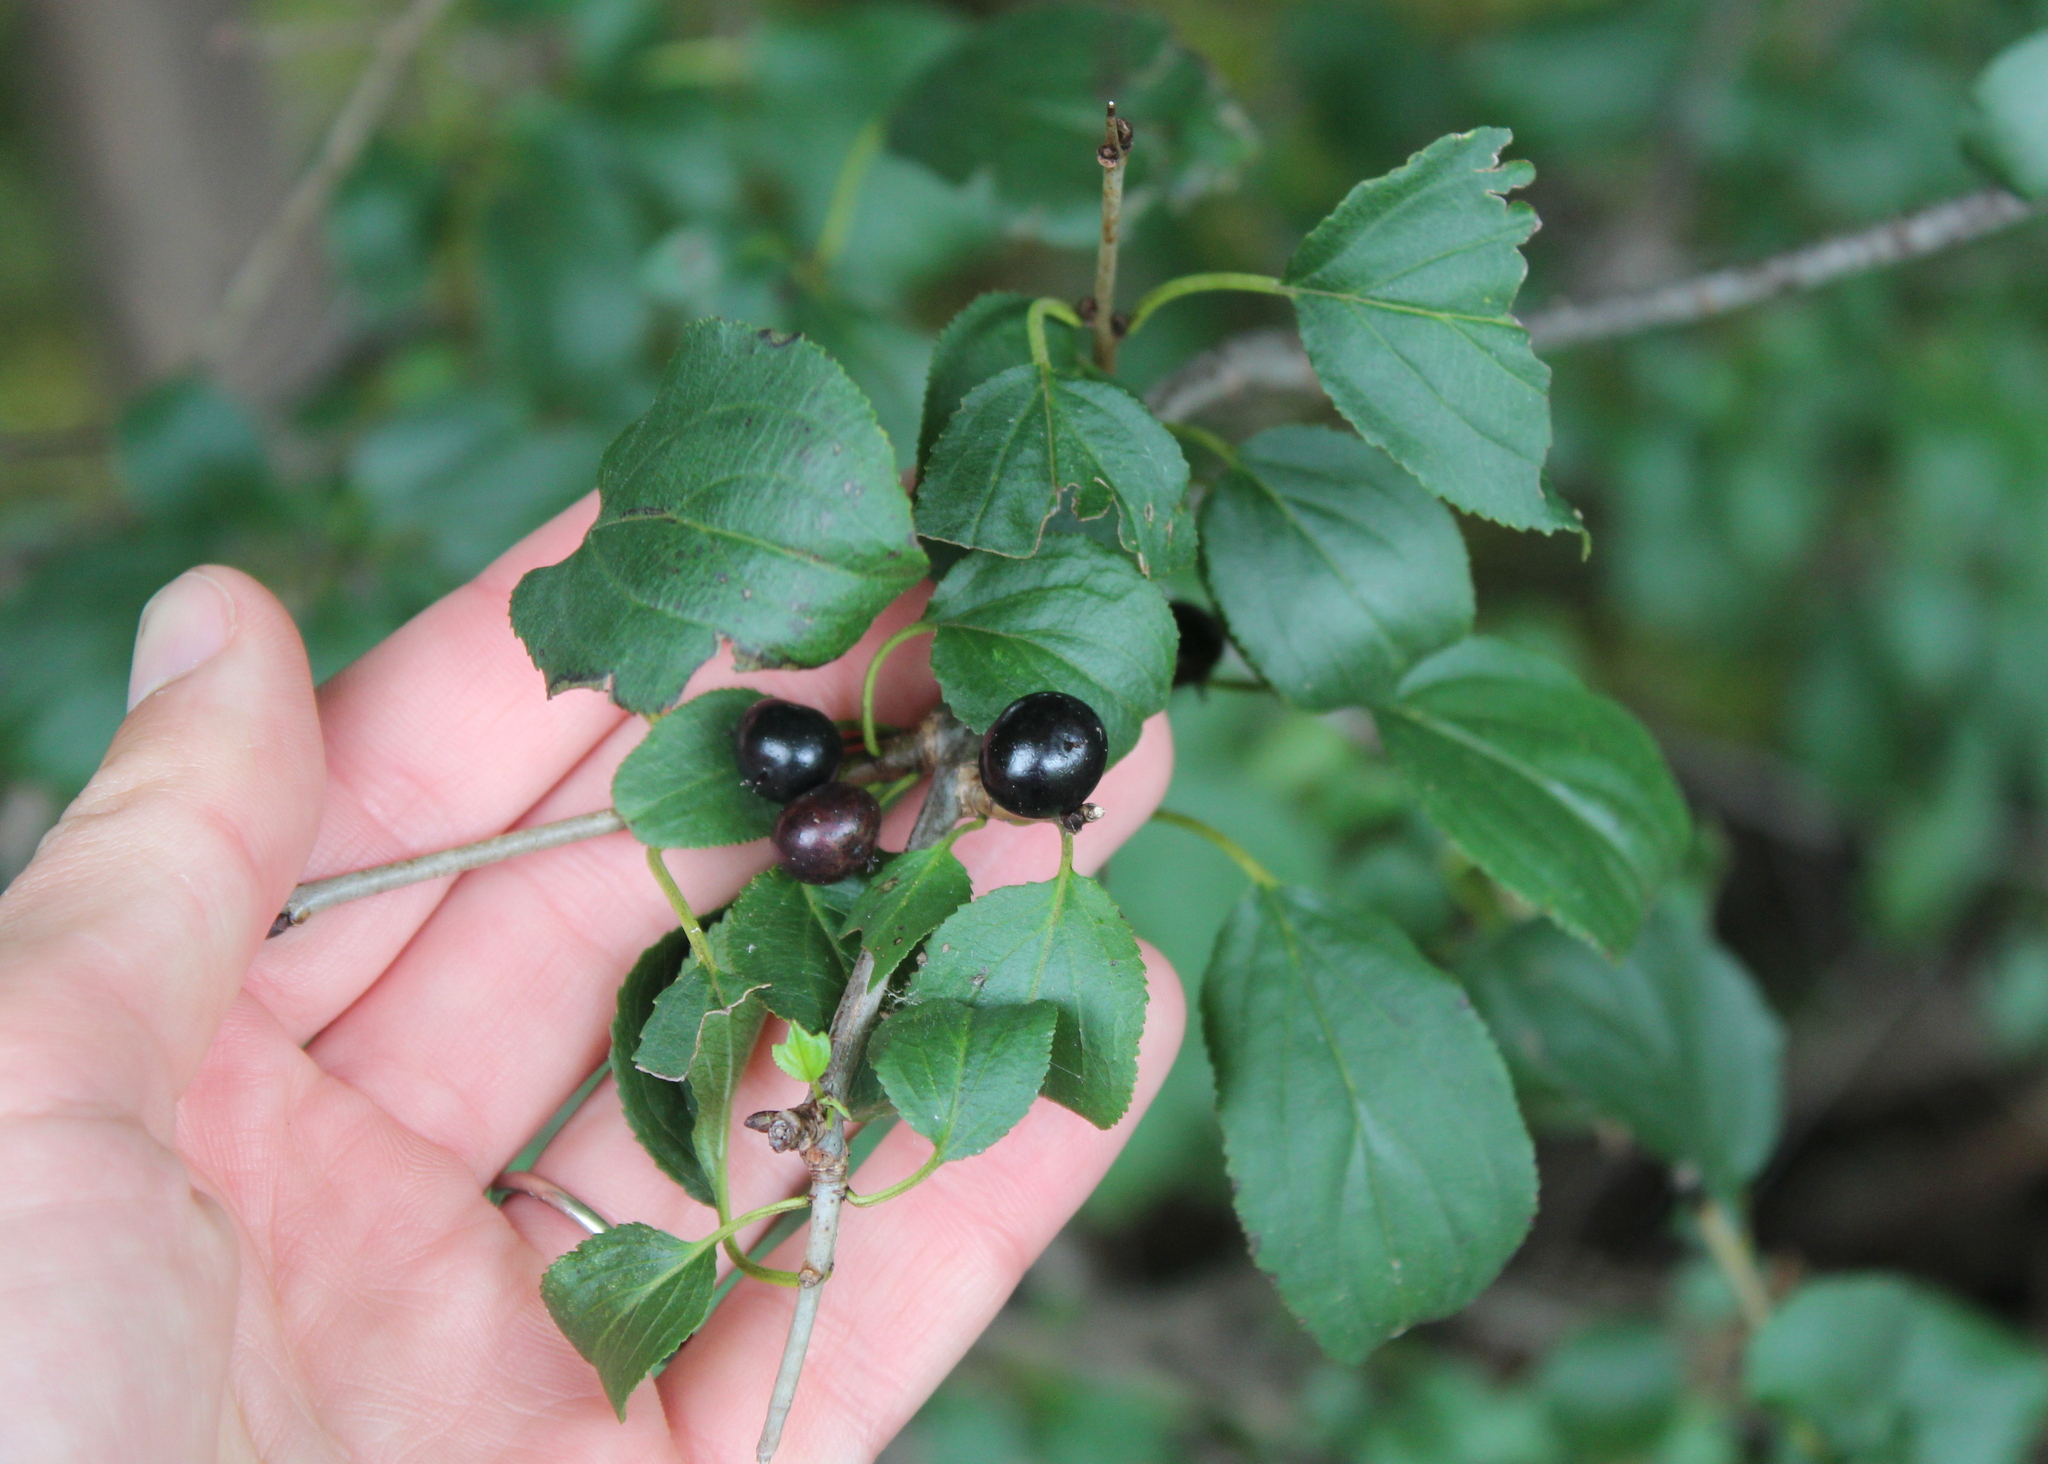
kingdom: Plantae
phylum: Tracheophyta
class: Magnoliopsida
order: Rosales
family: Rhamnaceae
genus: Rhamnus
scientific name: Rhamnus cathartica
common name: Common buckthorn
